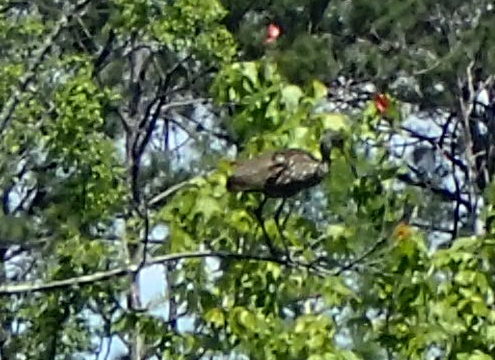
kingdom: Animalia
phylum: Chordata
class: Aves
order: Gruiformes
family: Aramidae
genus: Aramus
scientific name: Aramus guarauna
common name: Limpkin
